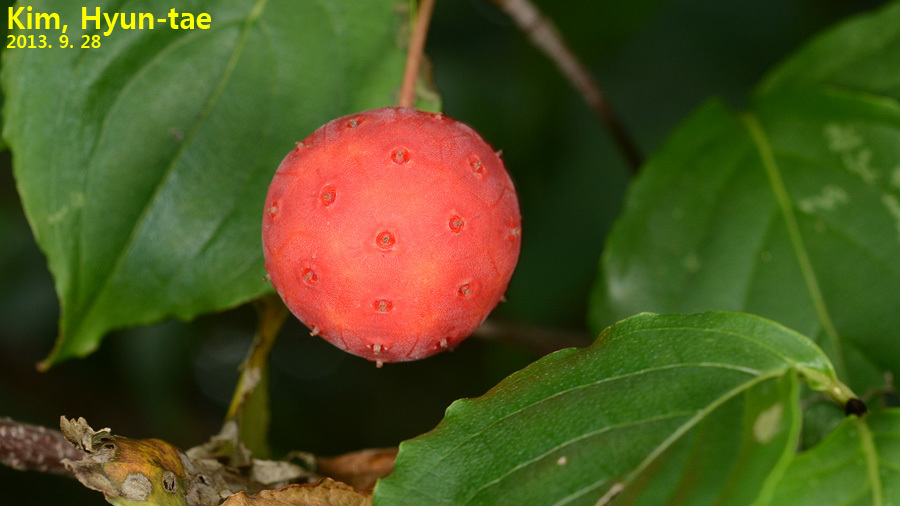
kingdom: Plantae
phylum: Tracheophyta
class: Magnoliopsida
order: Cornales
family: Cornaceae
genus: Cornus
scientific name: Cornus kousa
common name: Japanese dogwood
